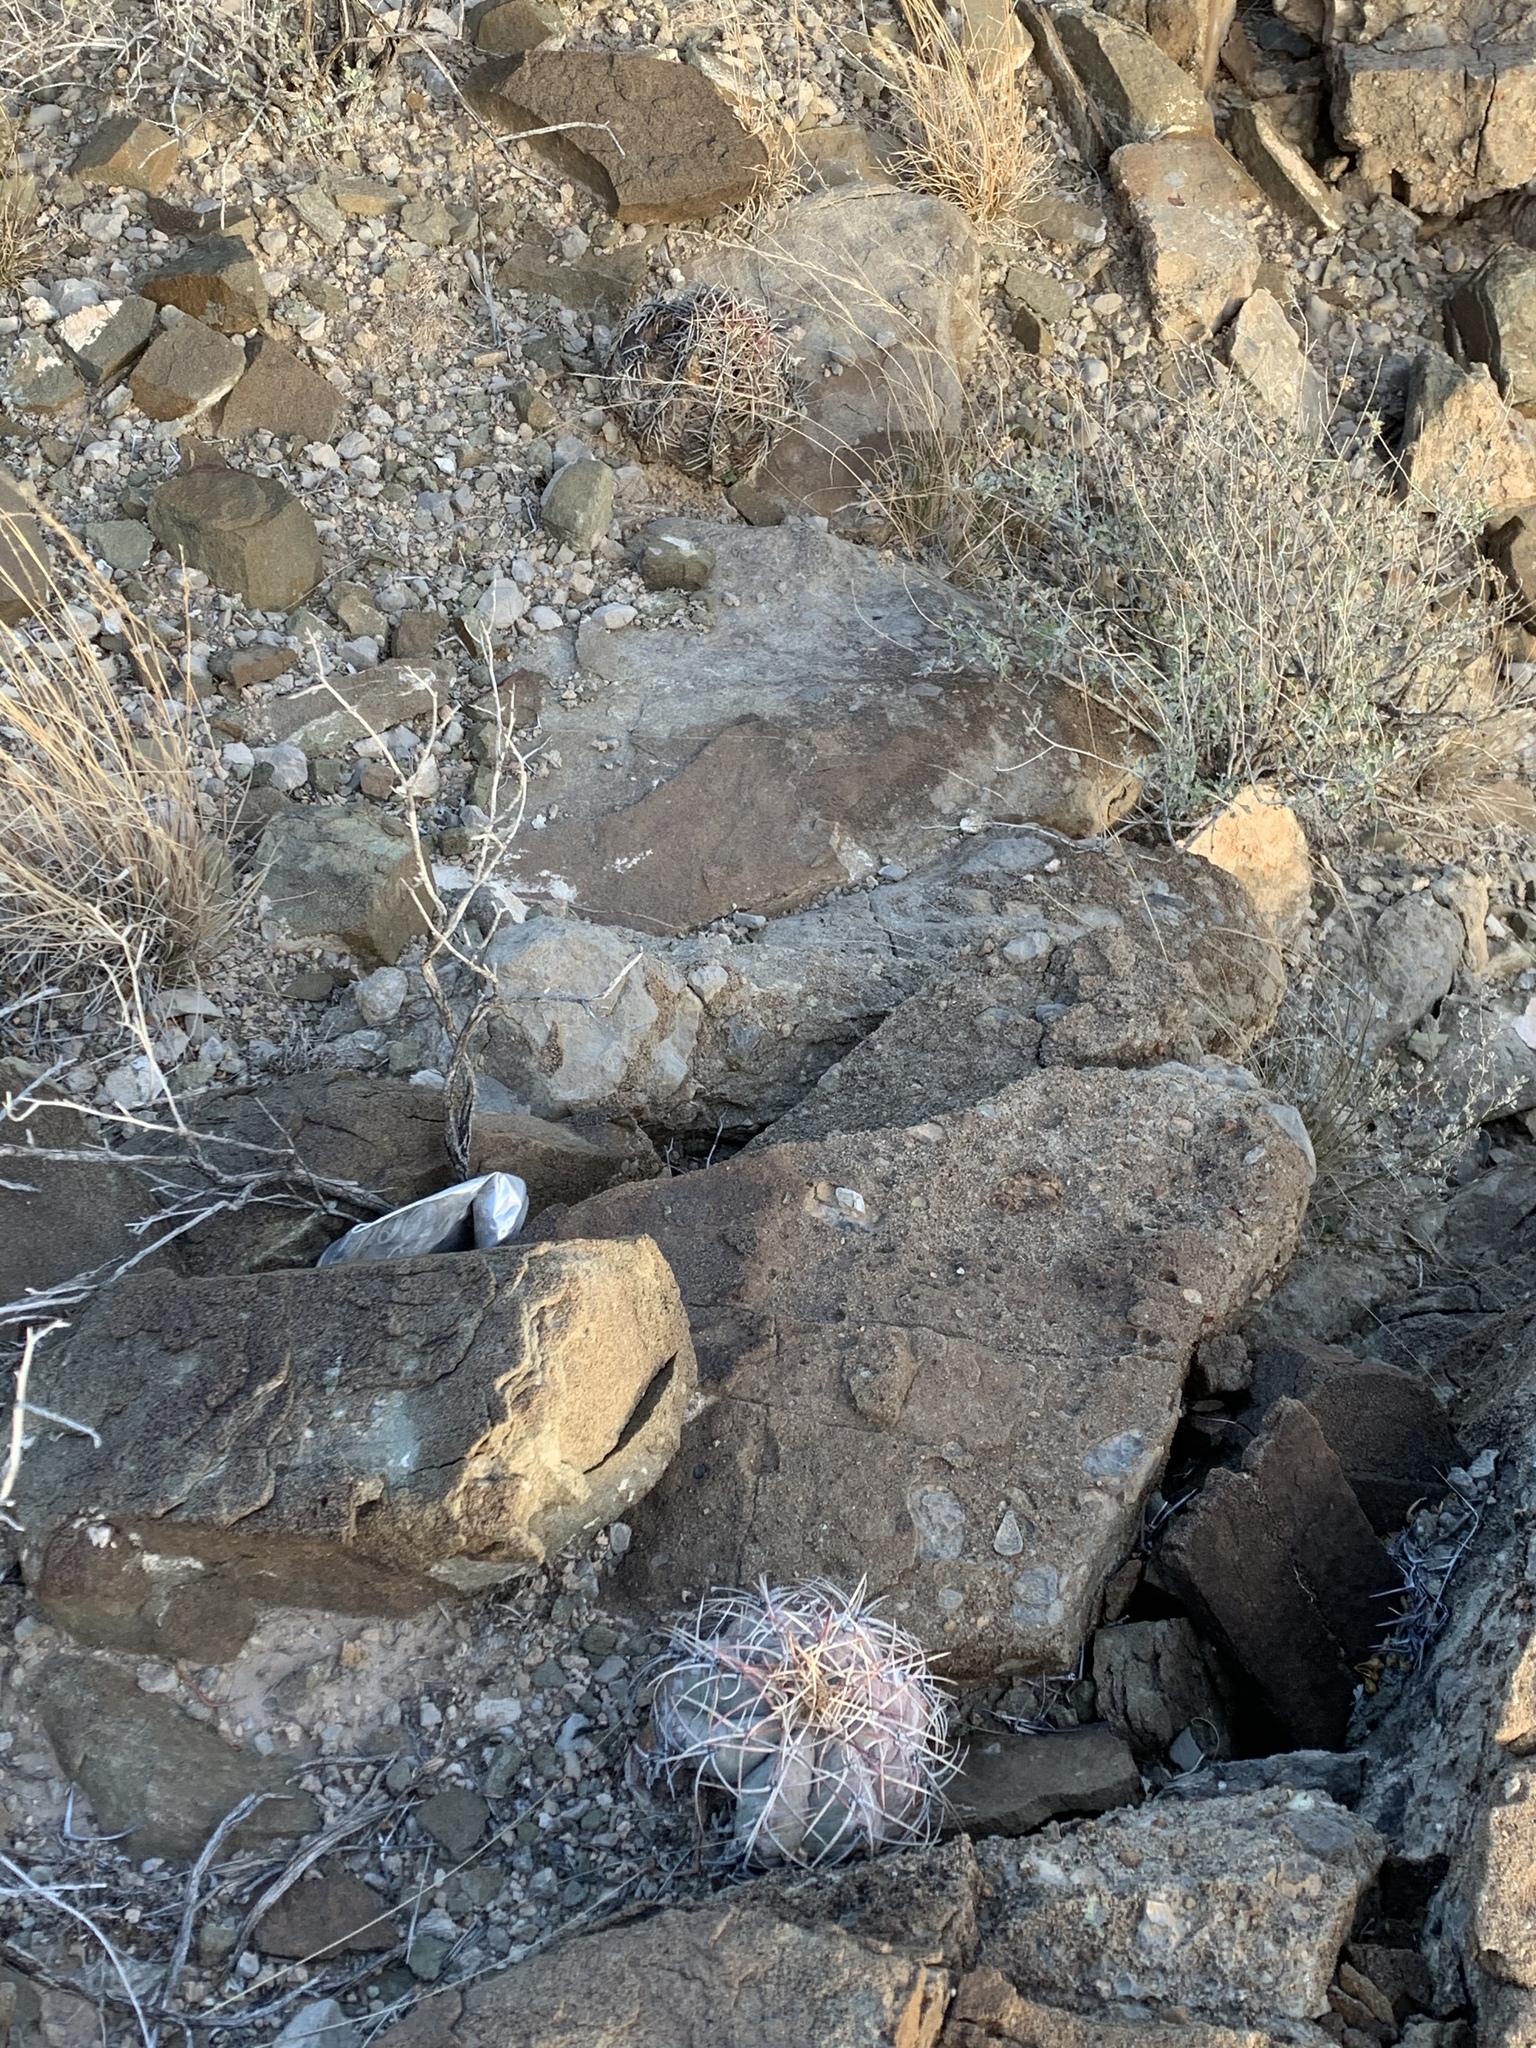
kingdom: Plantae
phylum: Tracheophyta
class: Magnoliopsida
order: Caryophyllales
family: Cactaceae
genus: Echinocactus
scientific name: Echinocactus horizonthalonius
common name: Devilshead
